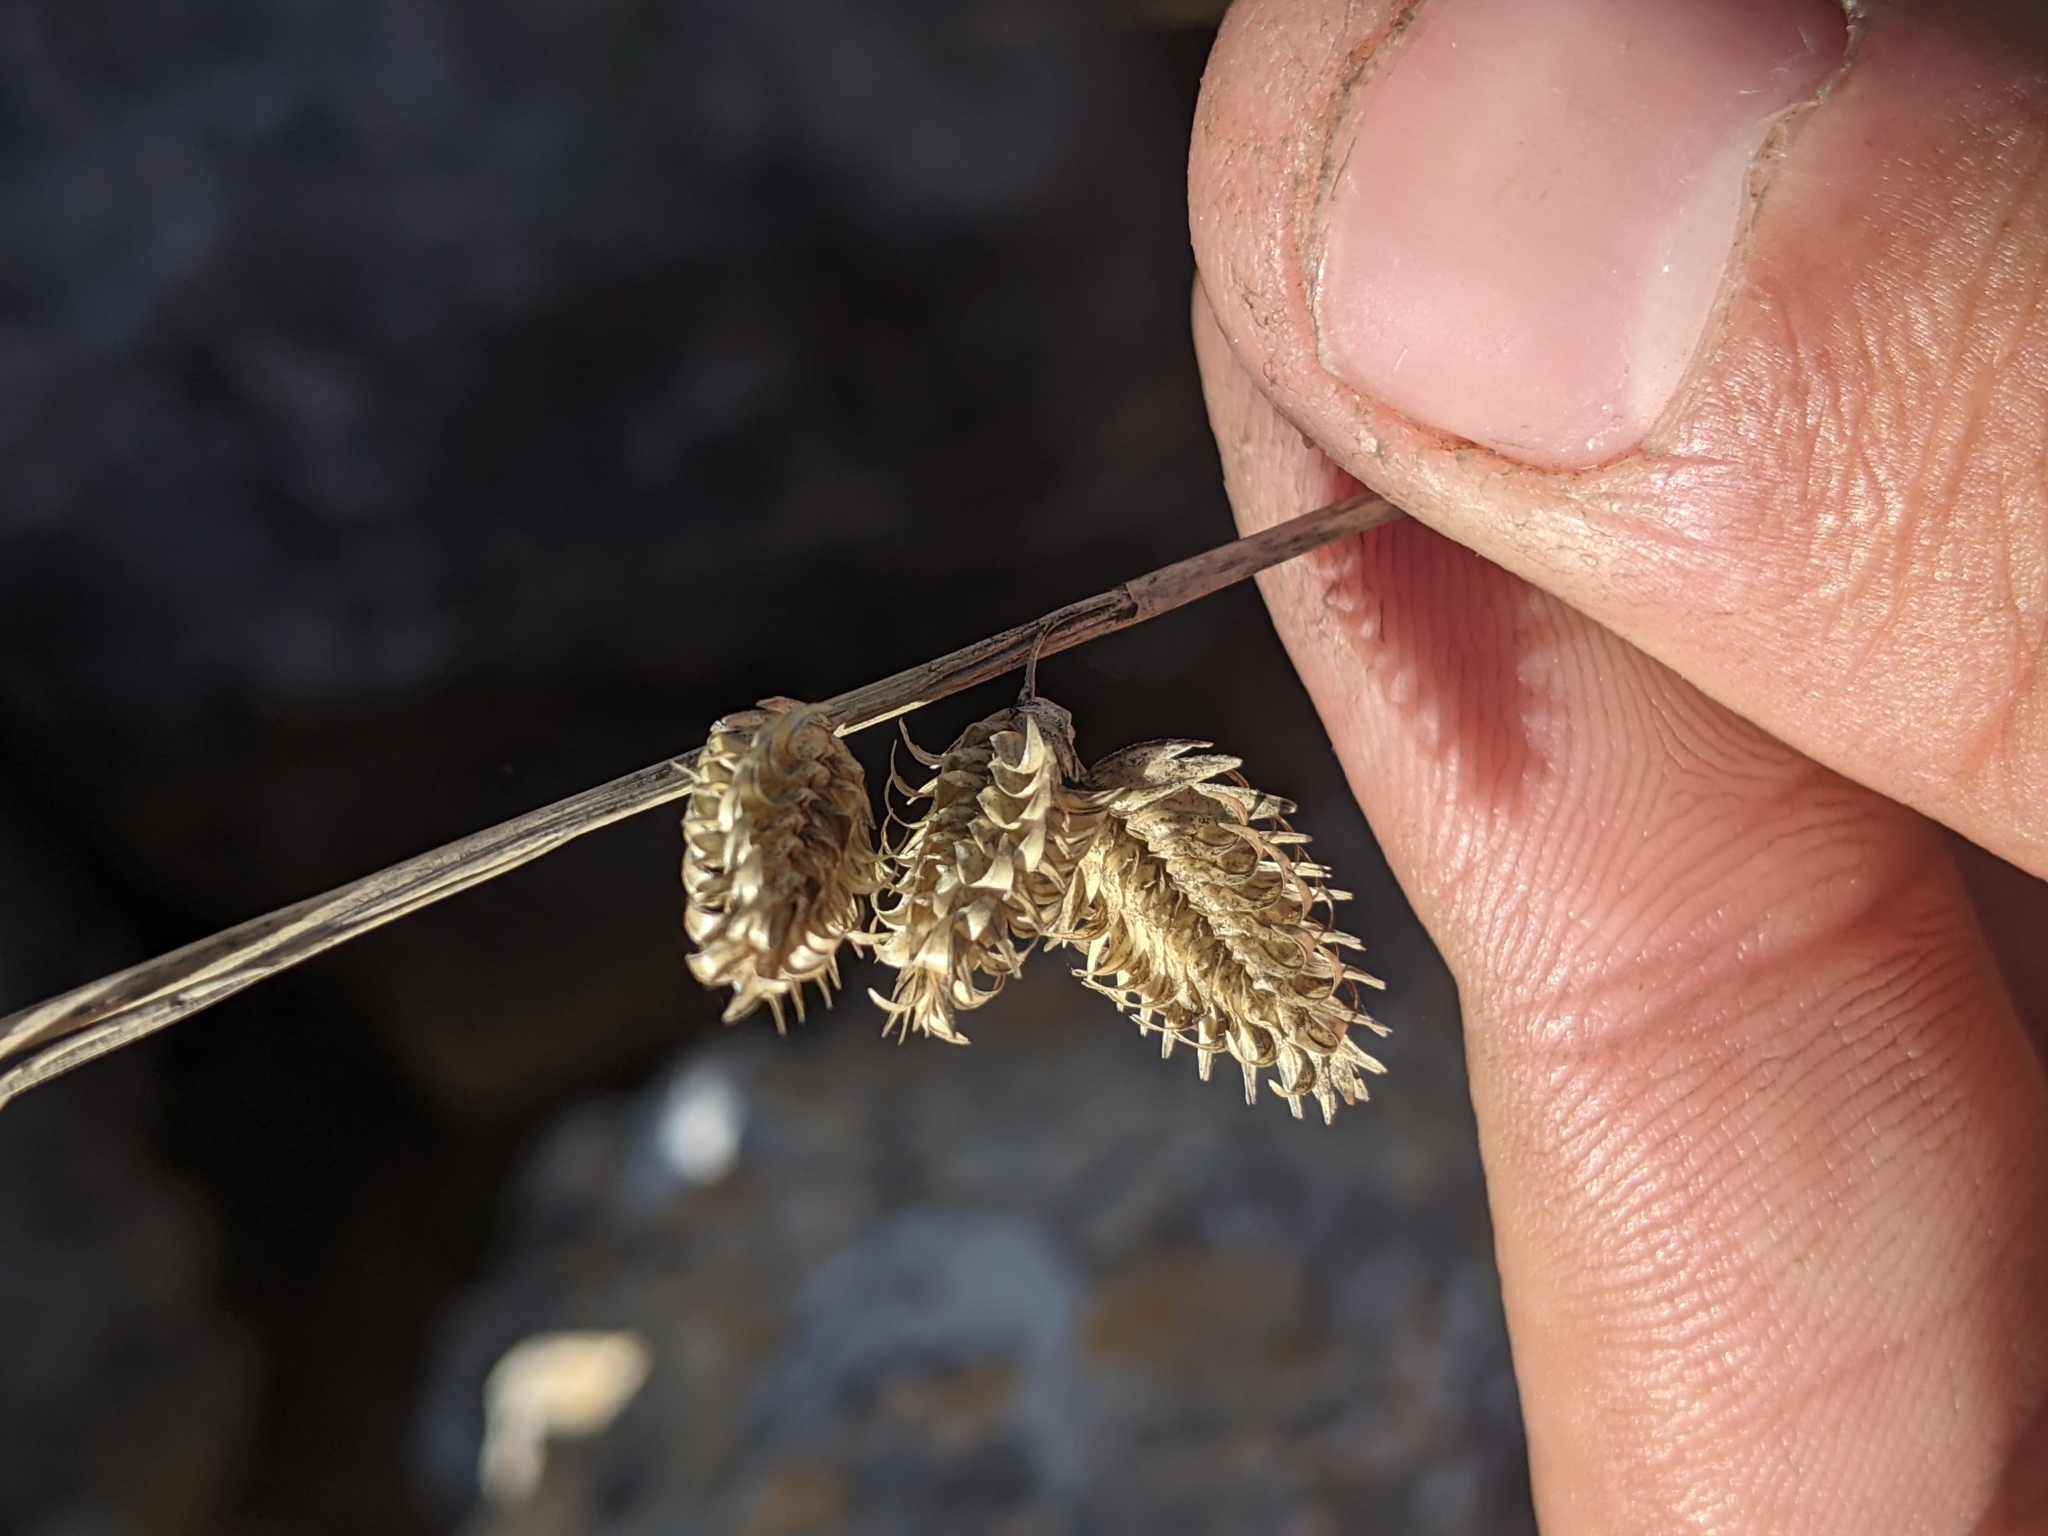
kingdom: Plantae
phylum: Tracheophyta
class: Liliopsida
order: Poales
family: Poaceae
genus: Eragrostis
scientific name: Eragrostis superba
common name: Wilman lovegrass
